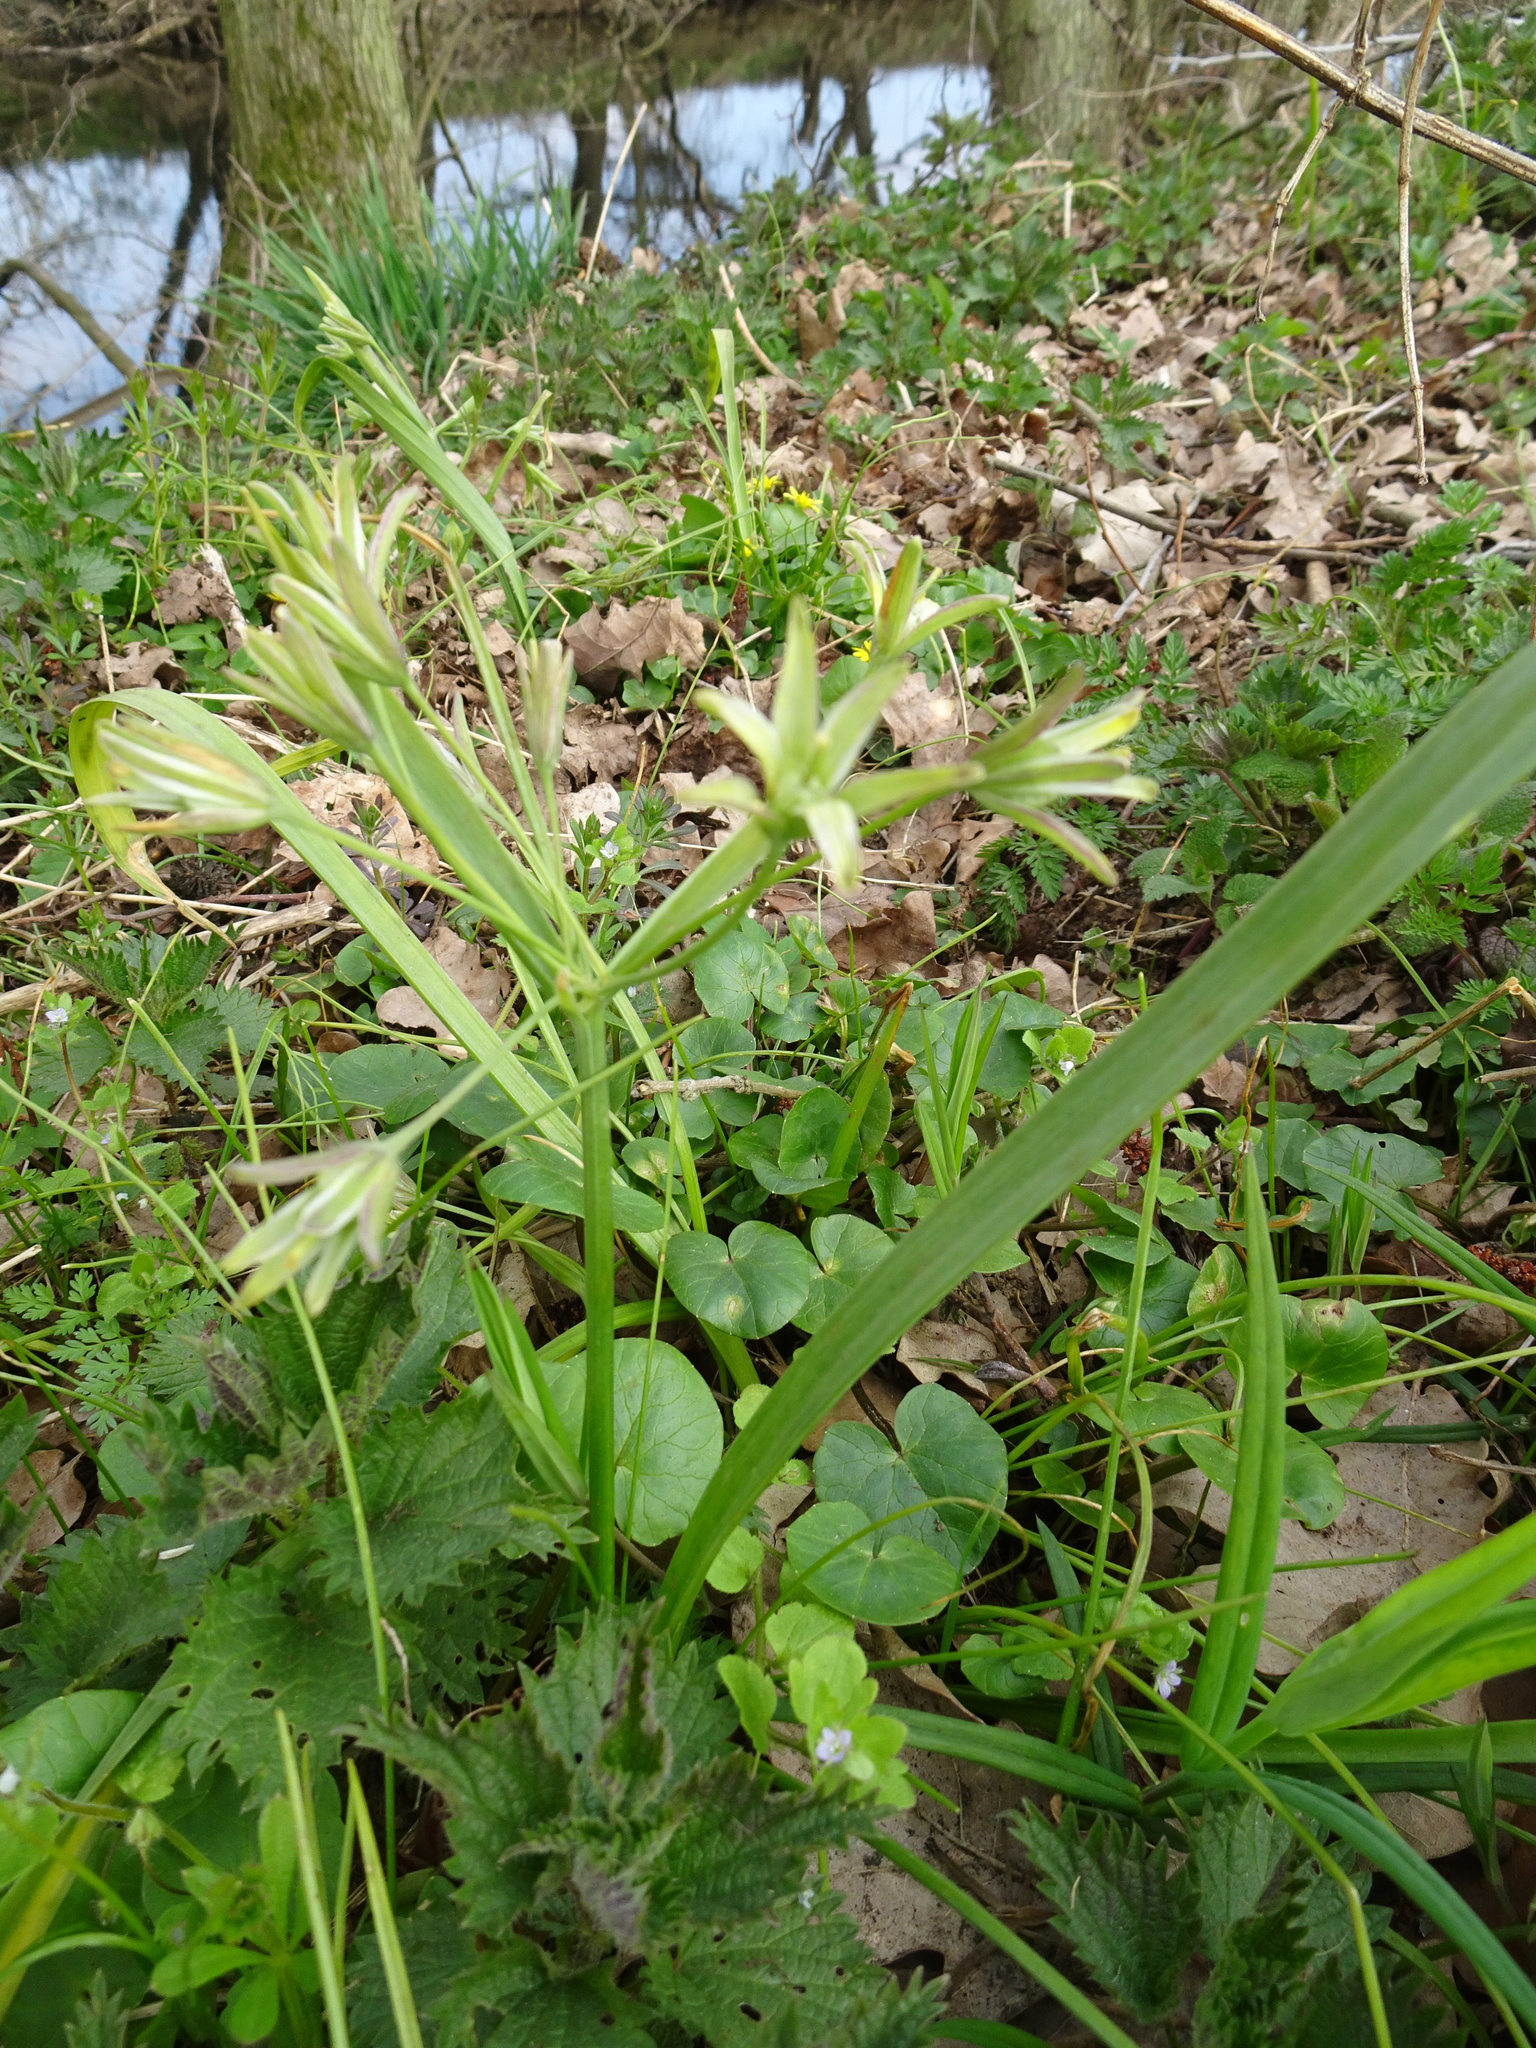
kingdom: Plantae
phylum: Tracheophyta
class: Liliopsida
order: Liliales
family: Liliaceae
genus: Gagea
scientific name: Gagea lutea
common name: Yellow star-of-bethlehem
